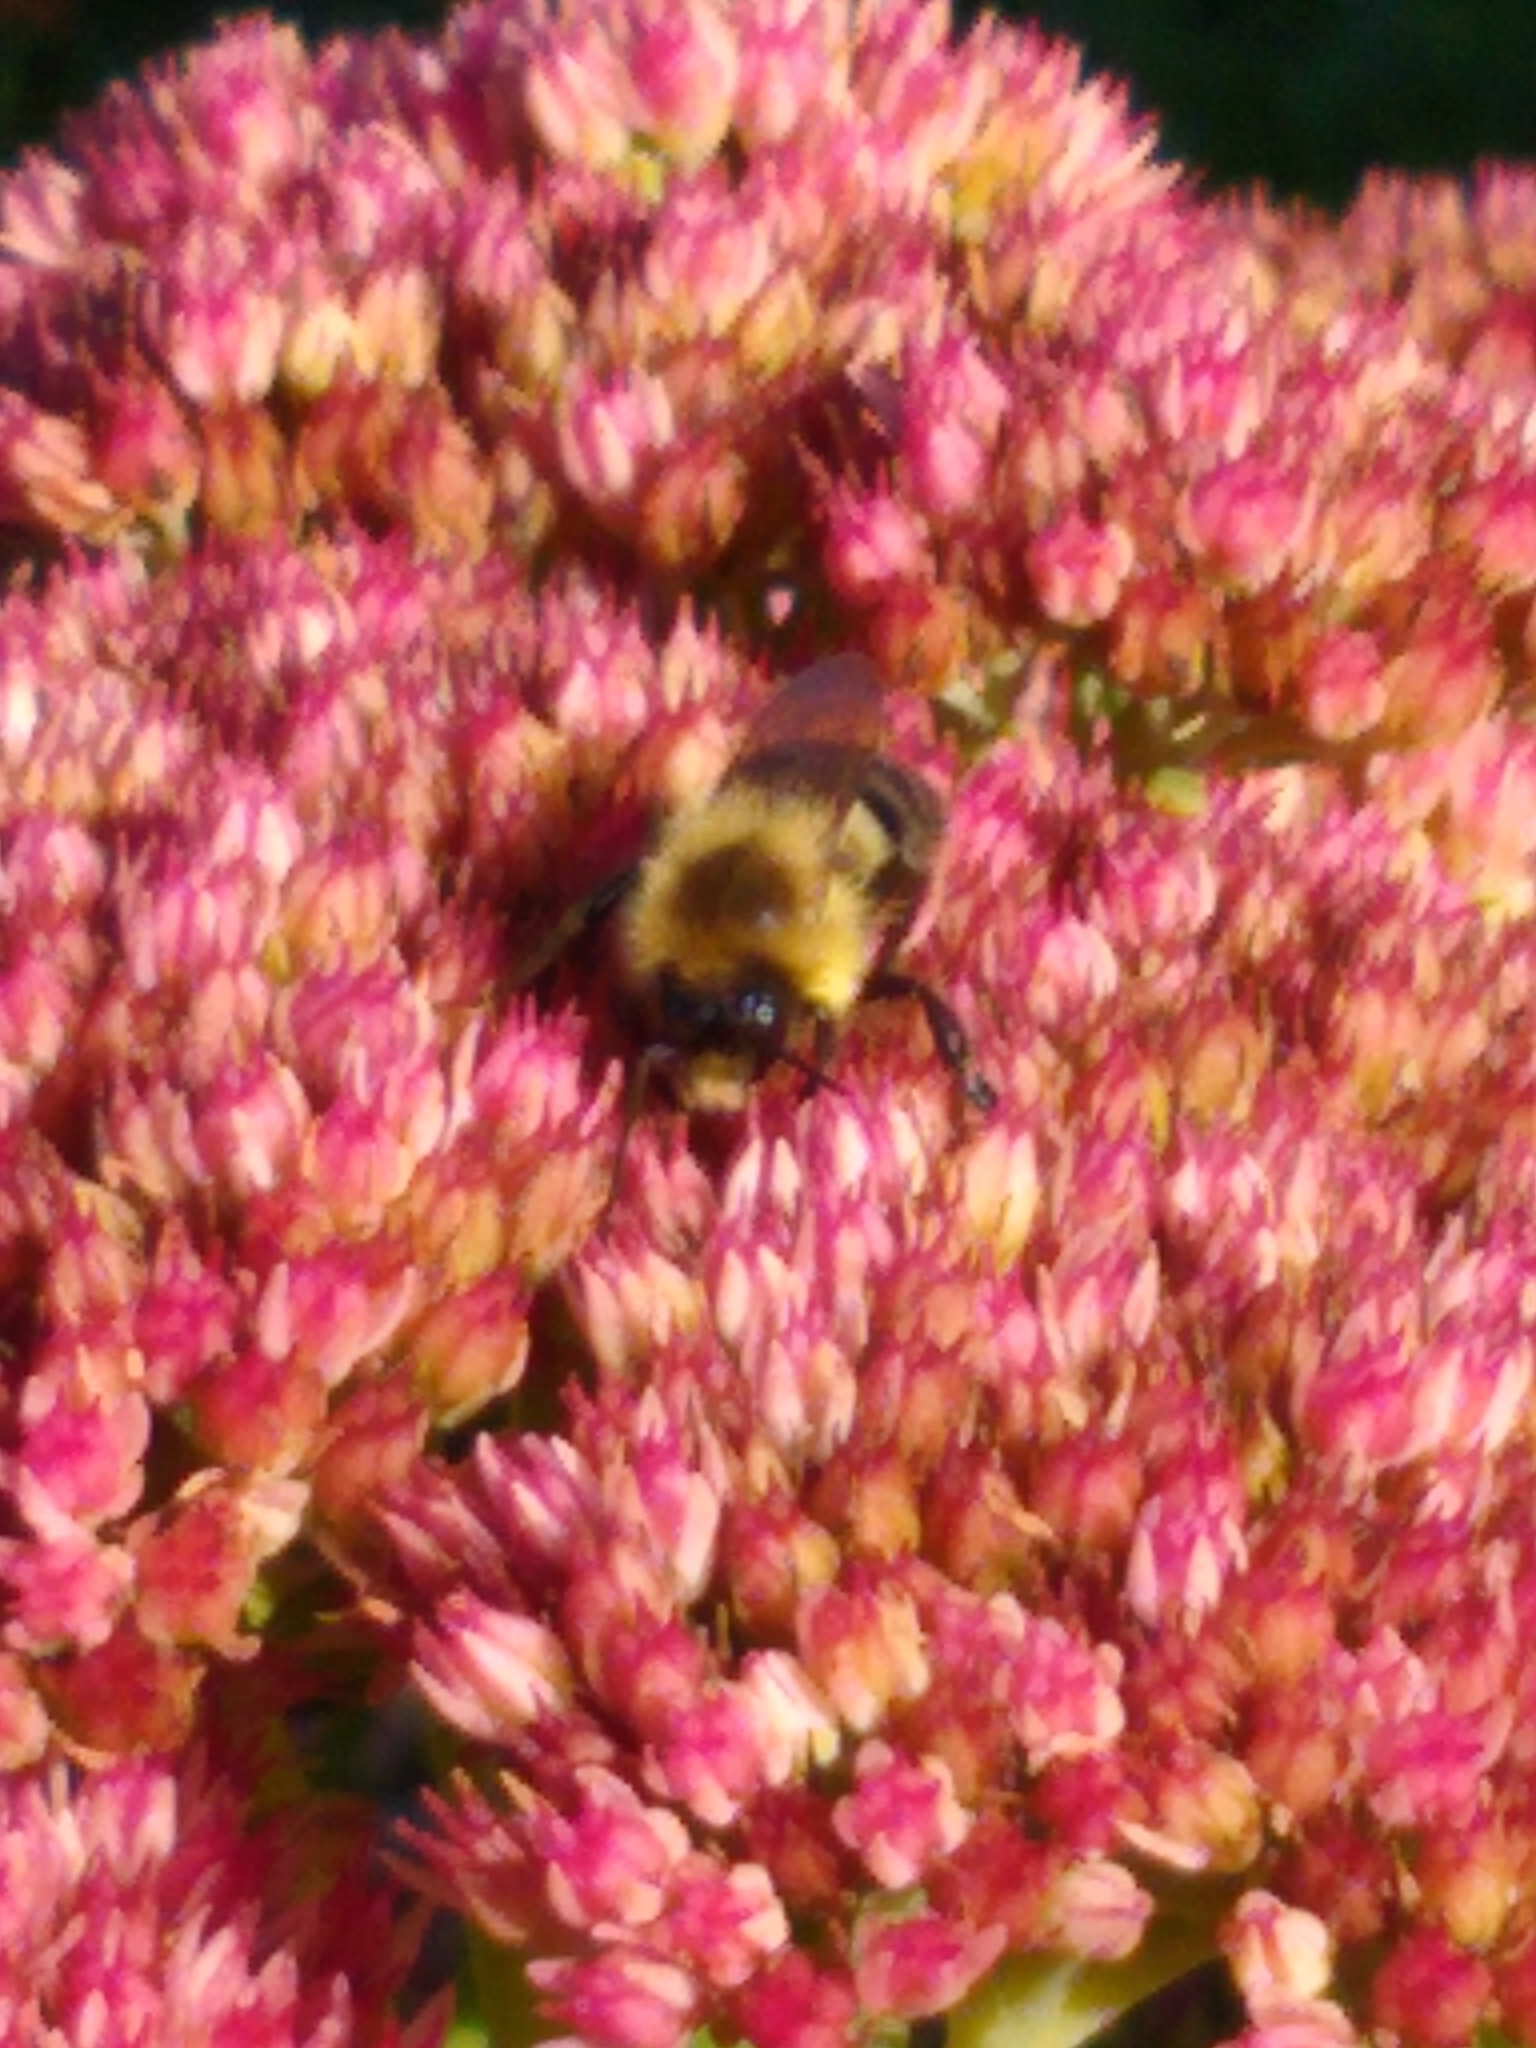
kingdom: Animalia
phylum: Arthropoda
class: Insecta
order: Hymenoptera
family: Apidae
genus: Bombus
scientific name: Bombus impatiens
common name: Common eastern bumble bee
